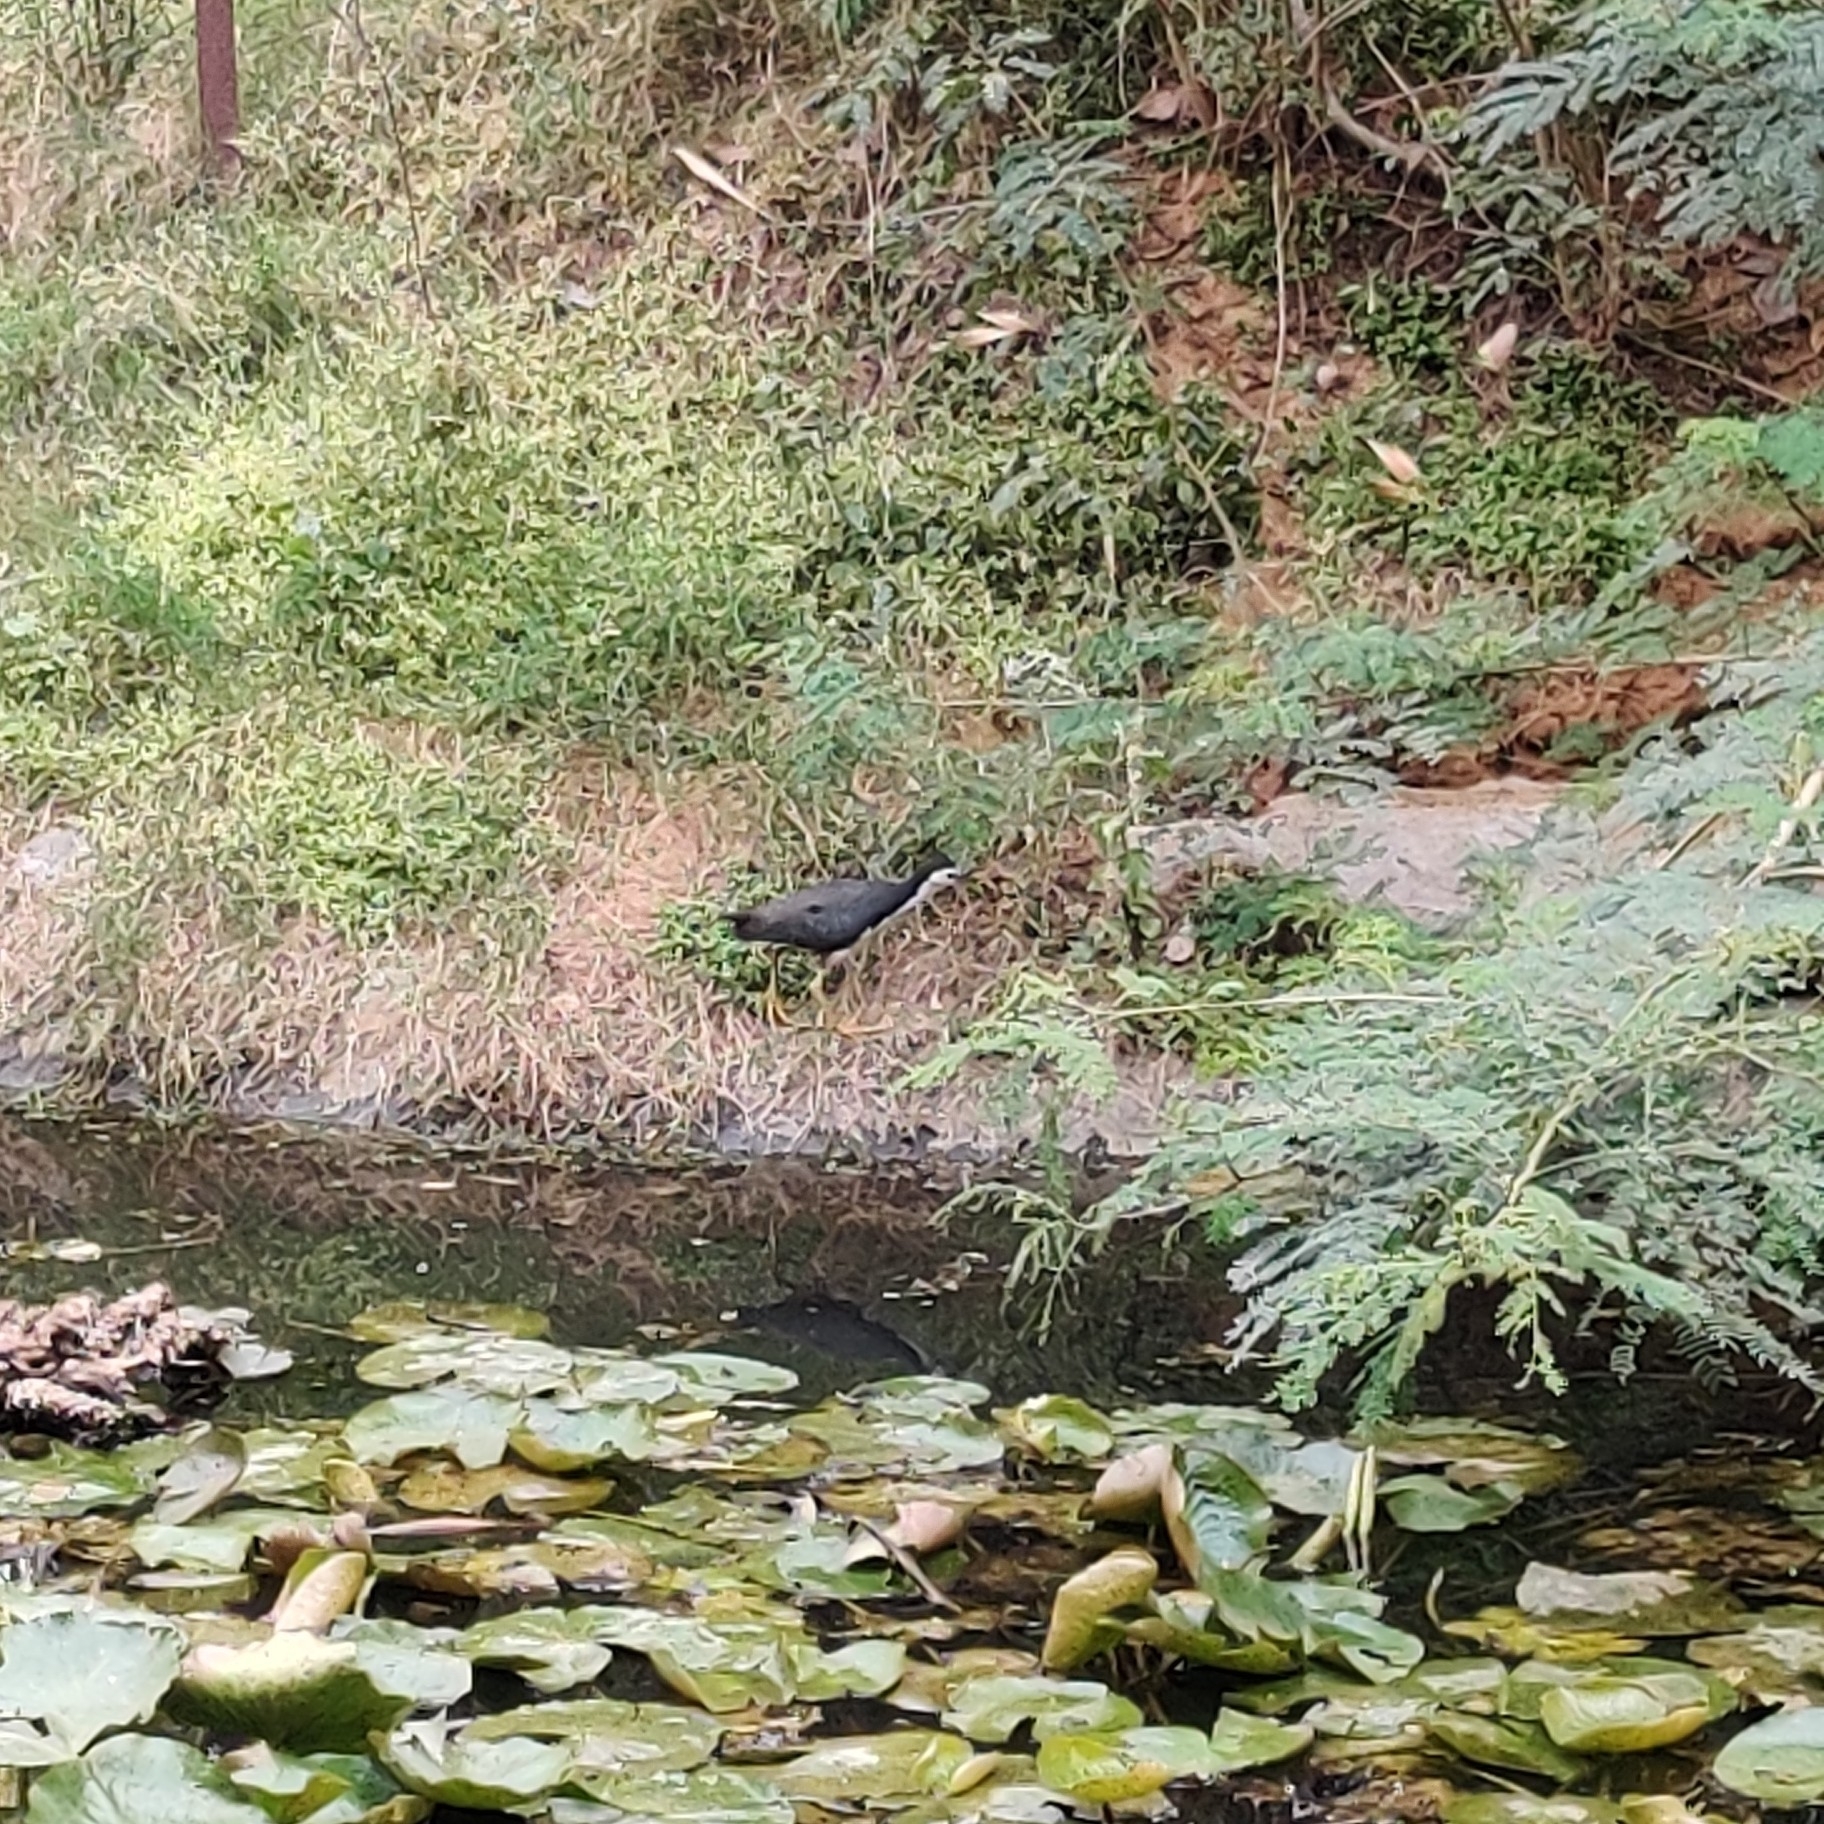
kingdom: Animalia
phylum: Chordata
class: Aves
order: Gruiformes
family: Rallidae
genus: Amaurornis
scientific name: Amaurornis phoenicurus
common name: White-breasted waterhen
